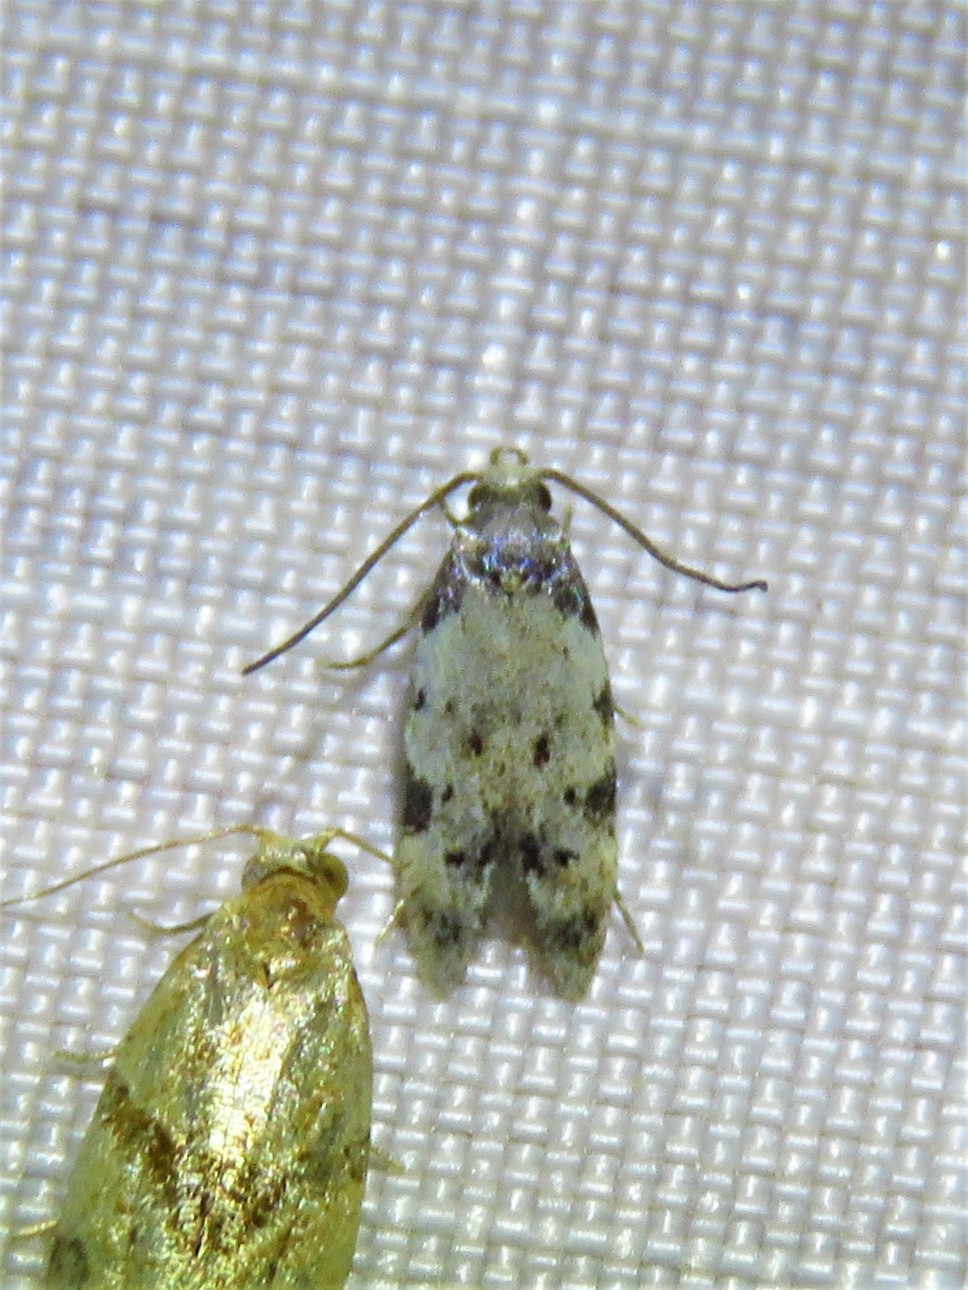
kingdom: Animalia
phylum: Arthropoda
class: Insecta
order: Lepidoptera
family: Autostichidae
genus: Taygete
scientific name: Taygete attributella
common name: Triangle-marked twirler moth
